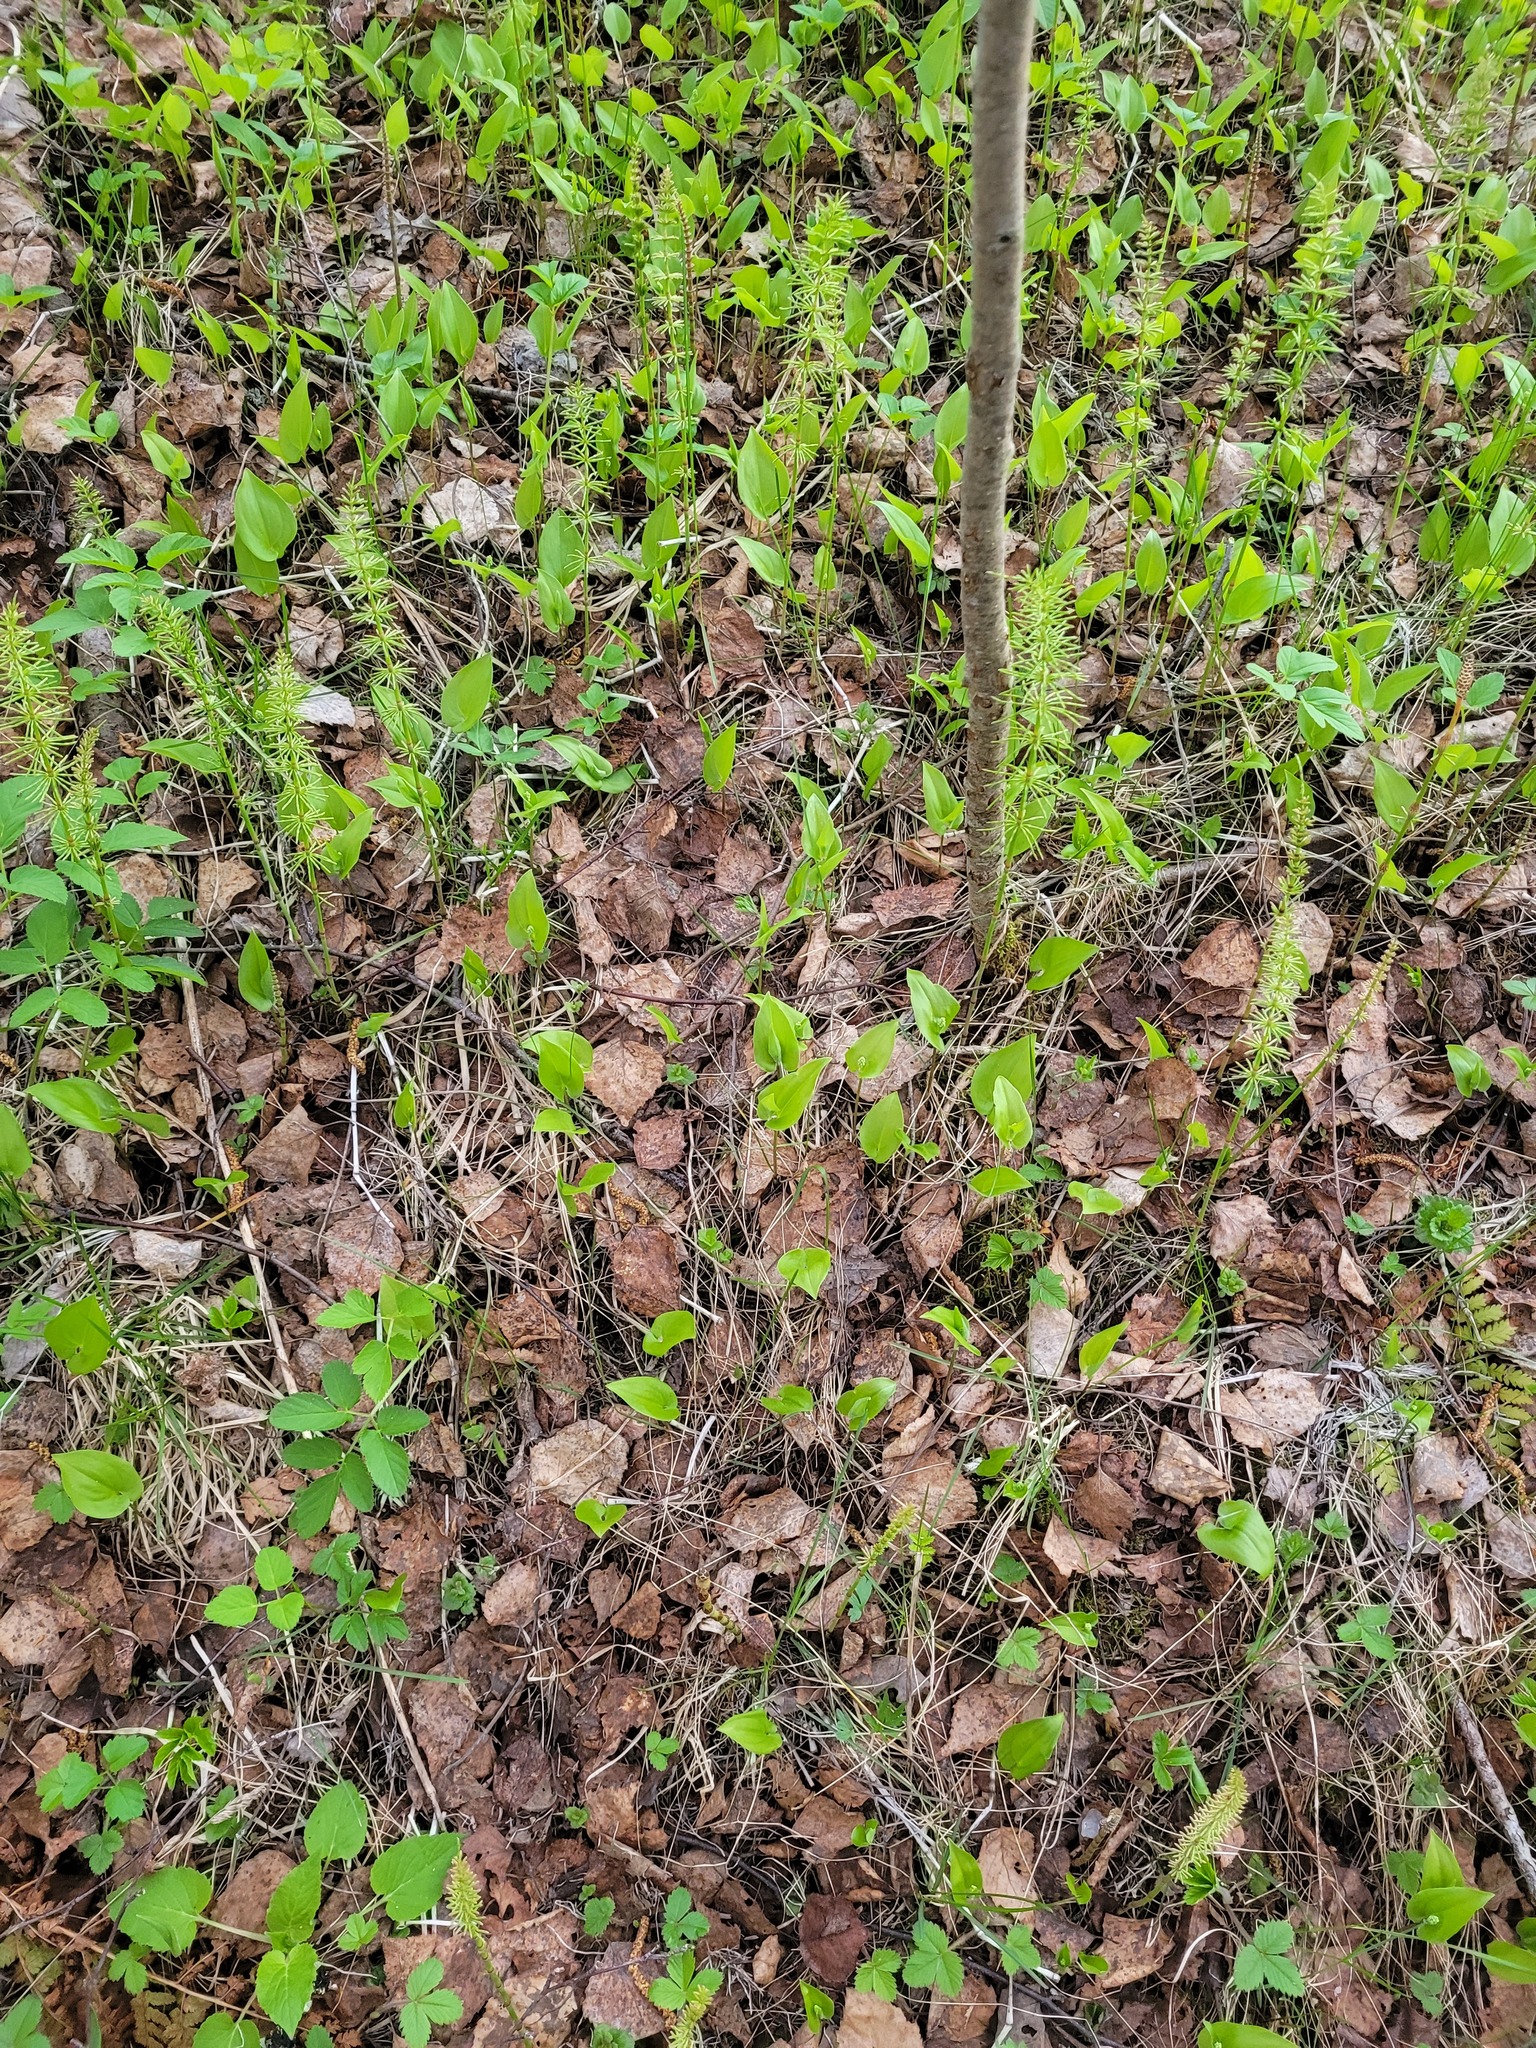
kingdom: Plantae
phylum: Tracheophyta
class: Liliopsida
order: Asparagales
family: Asparagaceae
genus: Maianthemum
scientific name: Maianthemum bifolium
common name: May lily
